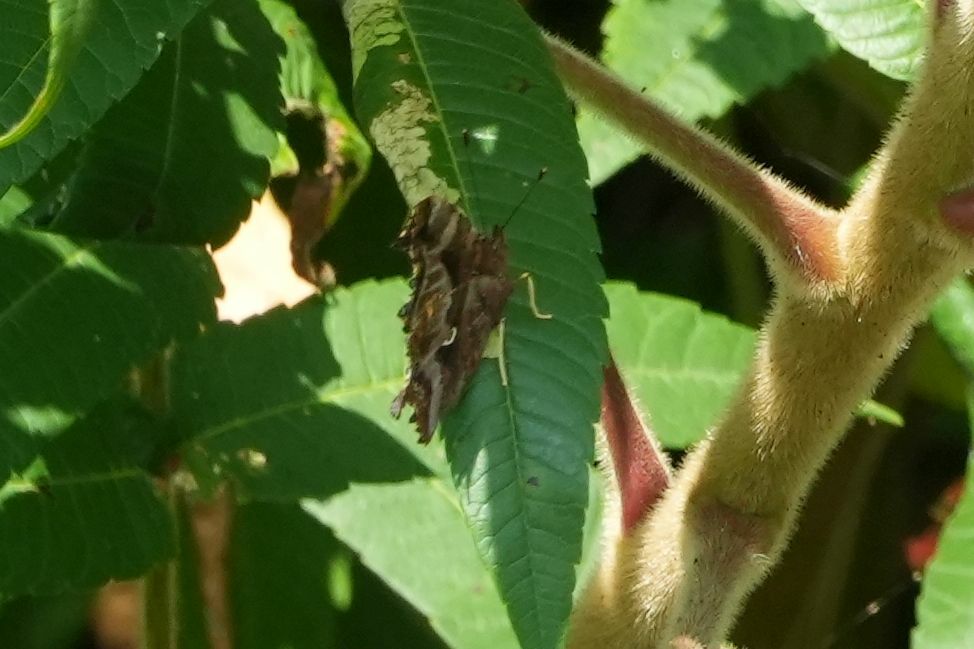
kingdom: Animalia
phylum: Arthropoda
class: Insecta
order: Lepidoptera
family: Nymphalidae
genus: Polygonia
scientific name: Polygonia comma
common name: Eastern comma
